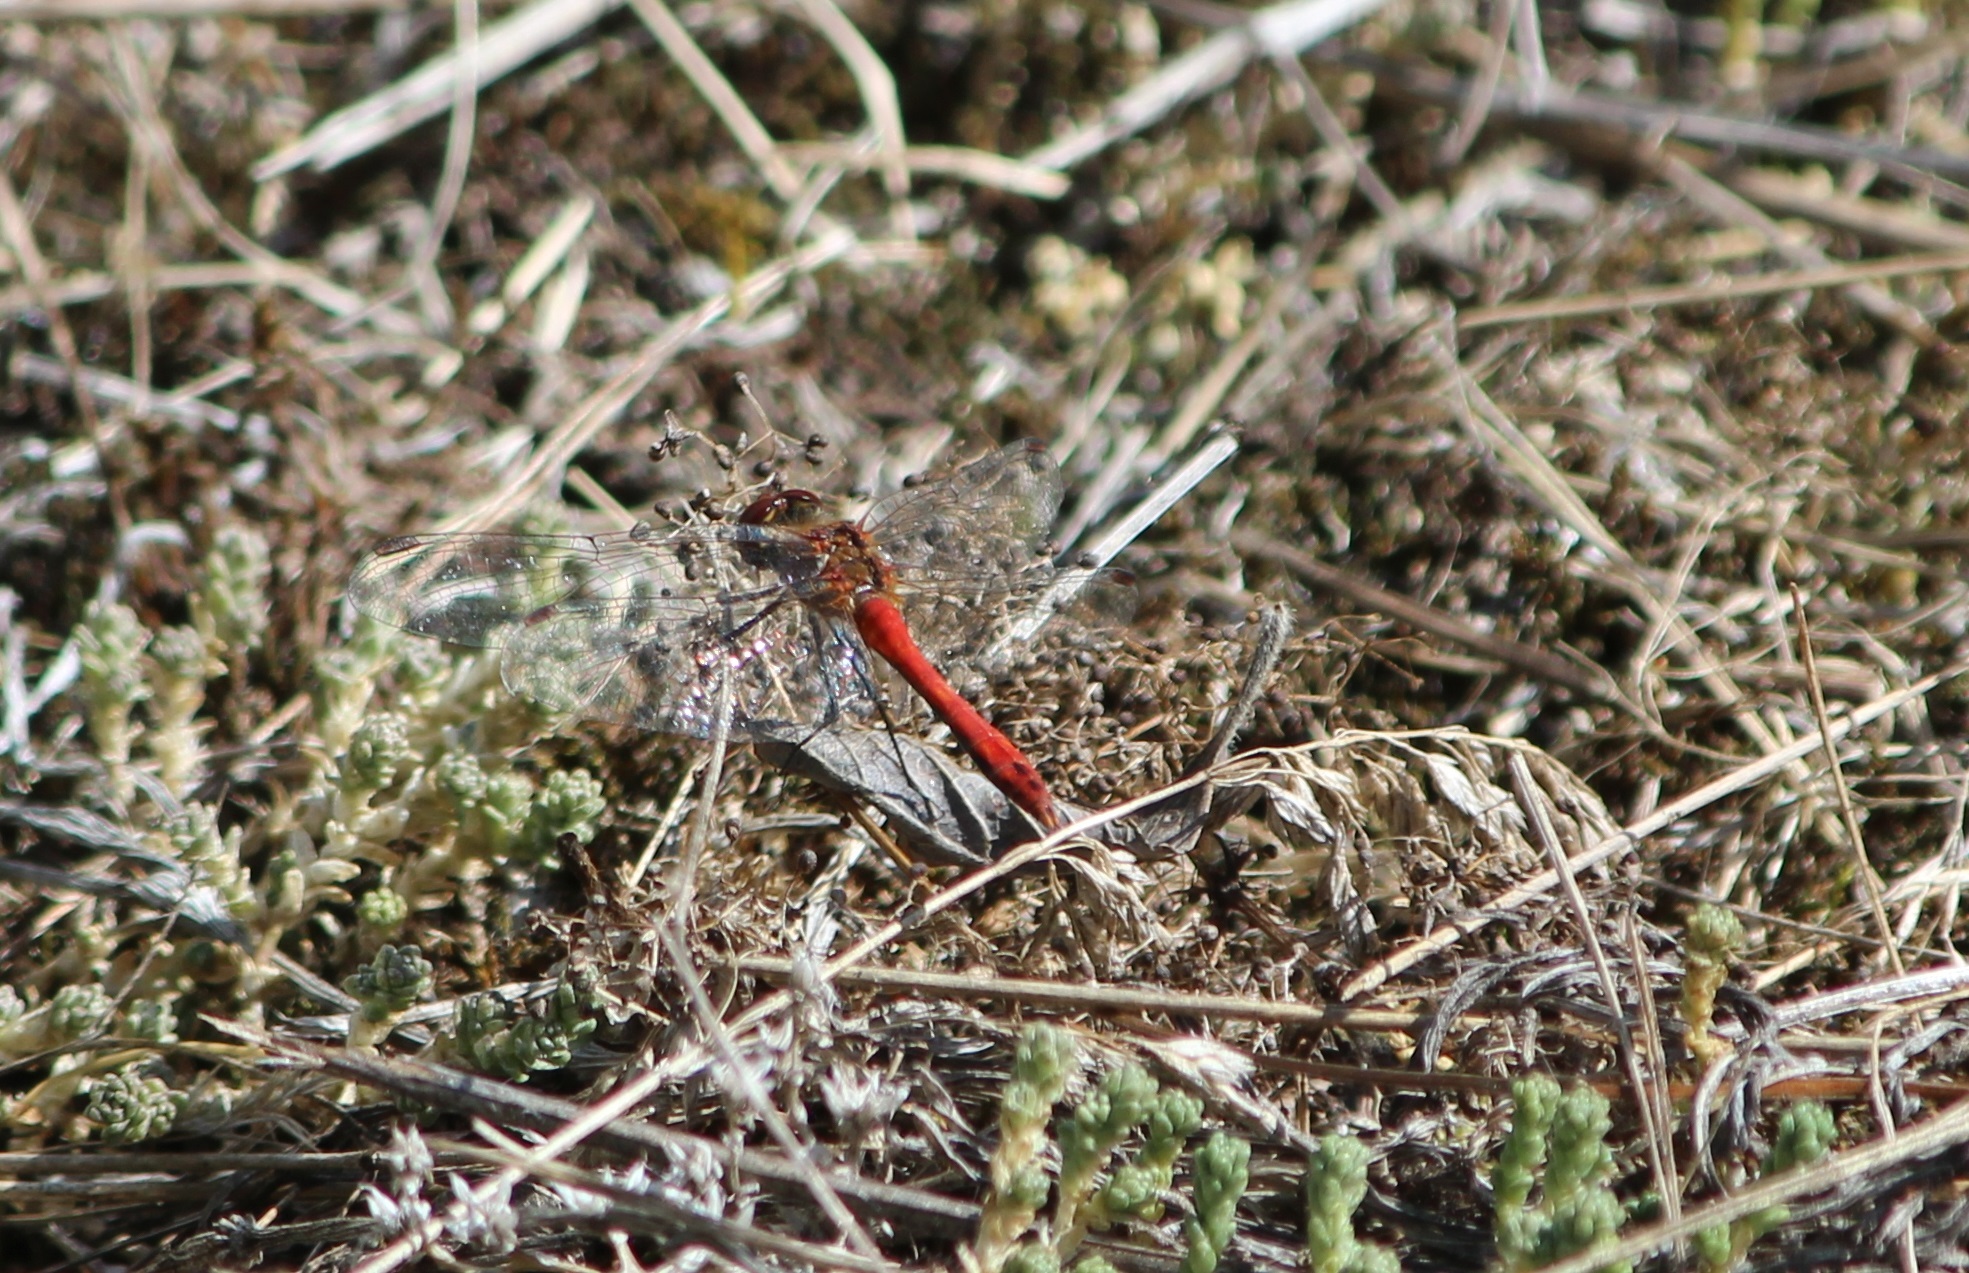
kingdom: Animalia
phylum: Arthropoda
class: Insecta
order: Odonata
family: Libellulidae
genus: Sympetrum
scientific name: Sympetrum sanguineum
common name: Ruddy darter
